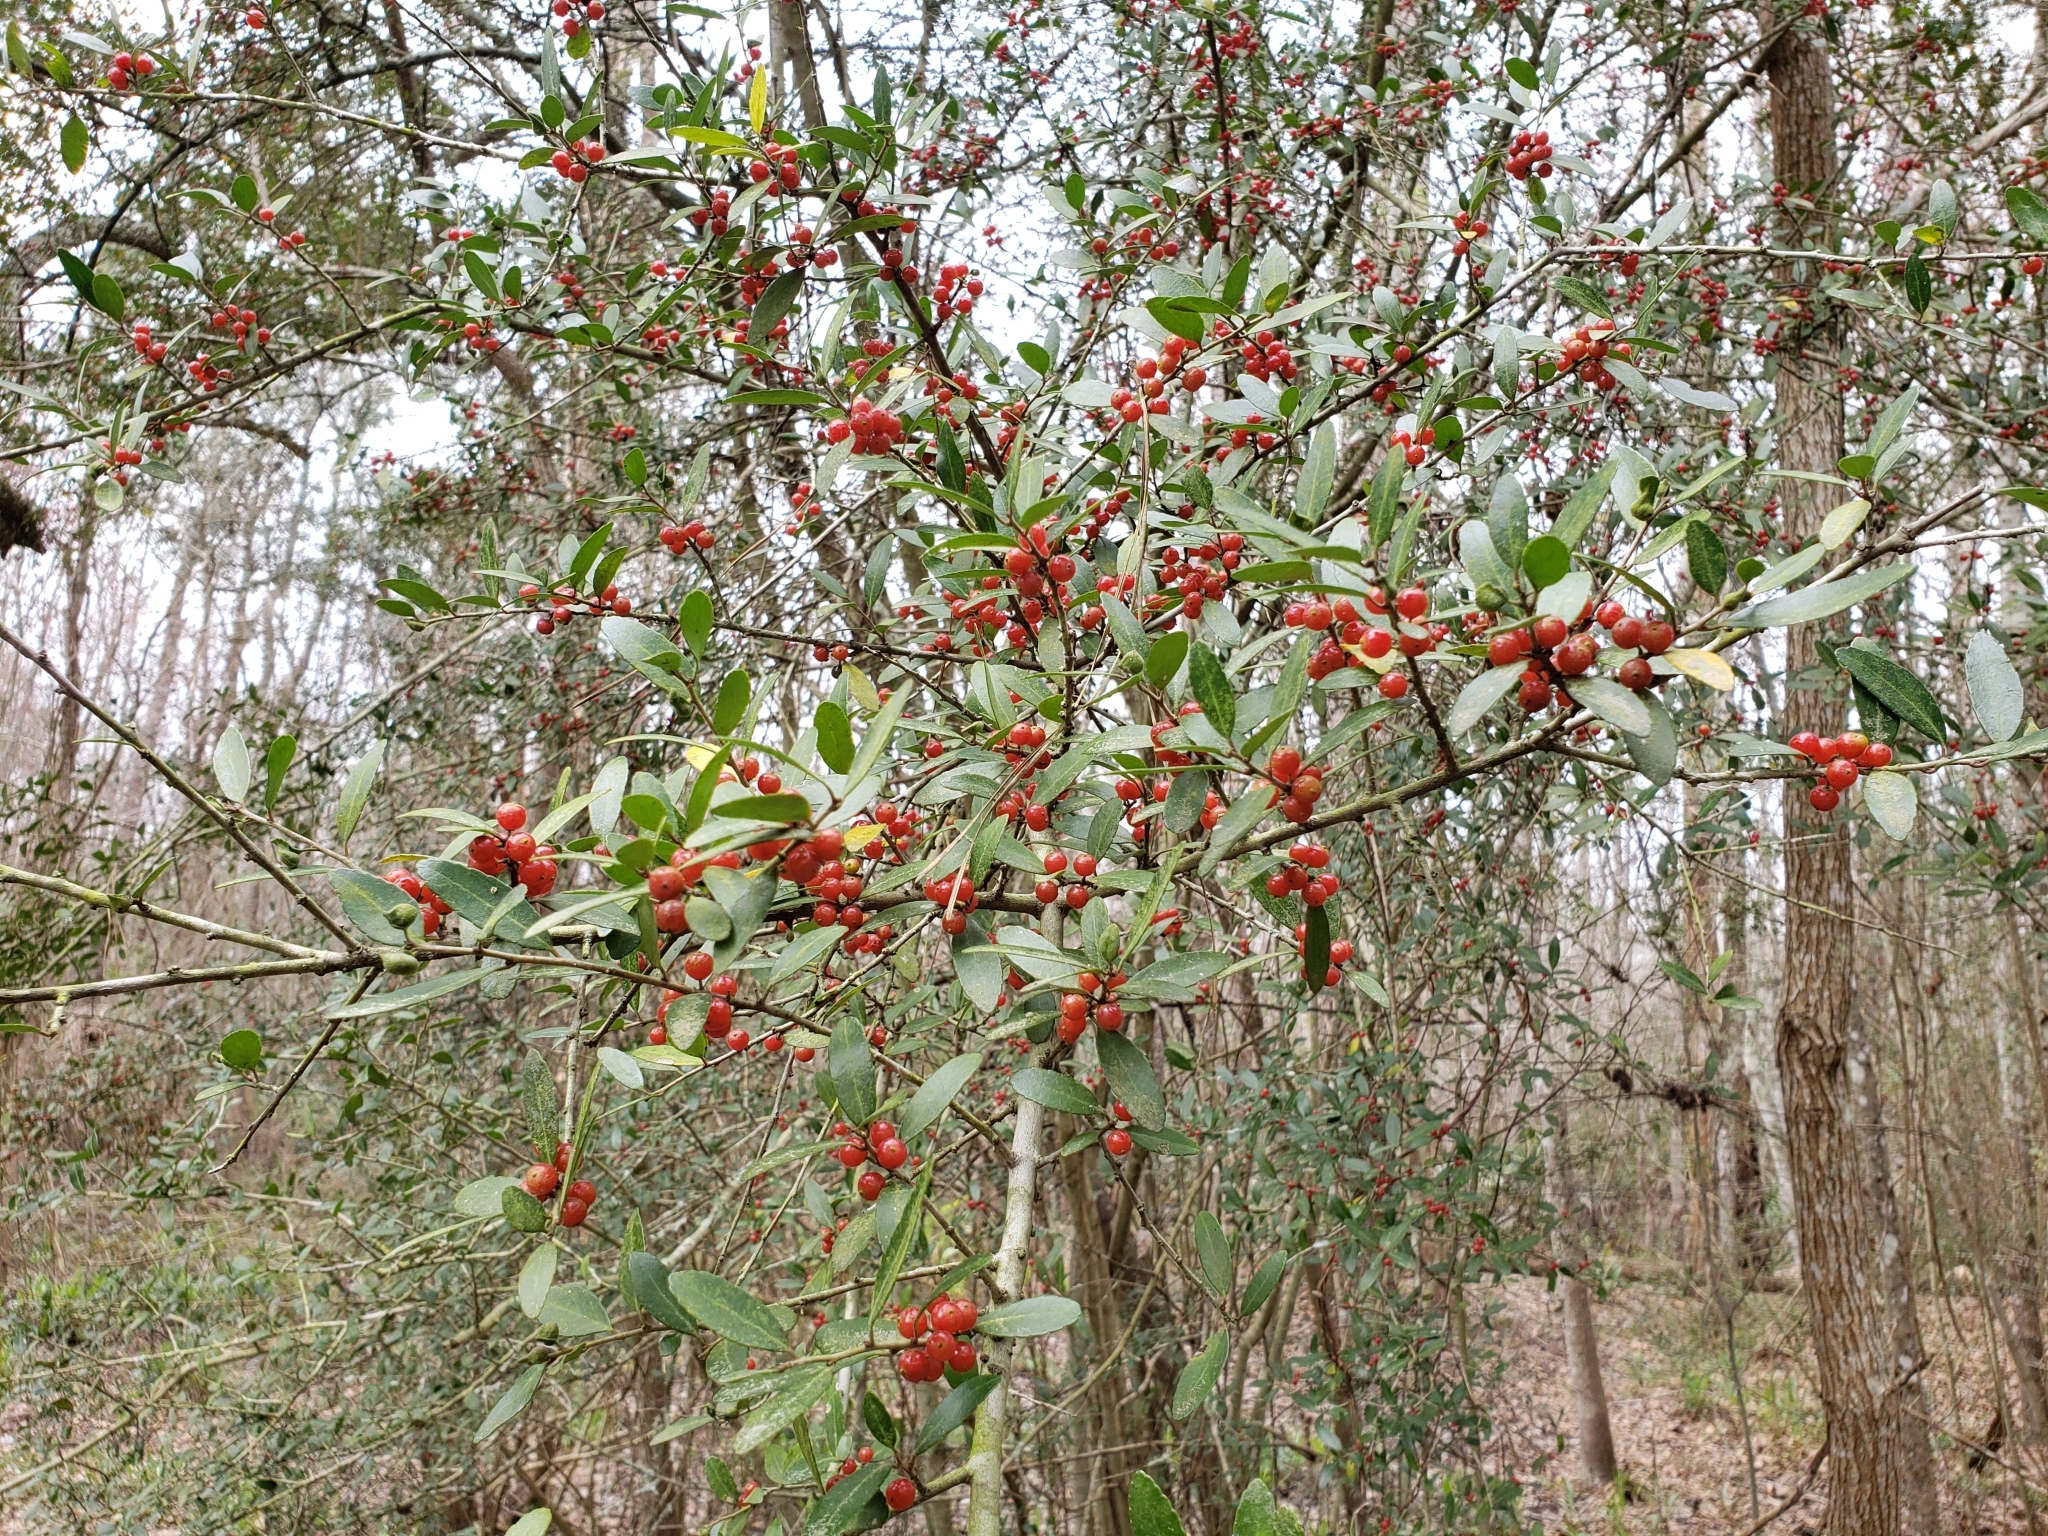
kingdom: Plantae
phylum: Tracheophyta
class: Magnoliopsida
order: Aquifoliales
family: Aquifoliaceae
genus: Ilex
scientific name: Ilex vomitoria
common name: Yaupon holly
